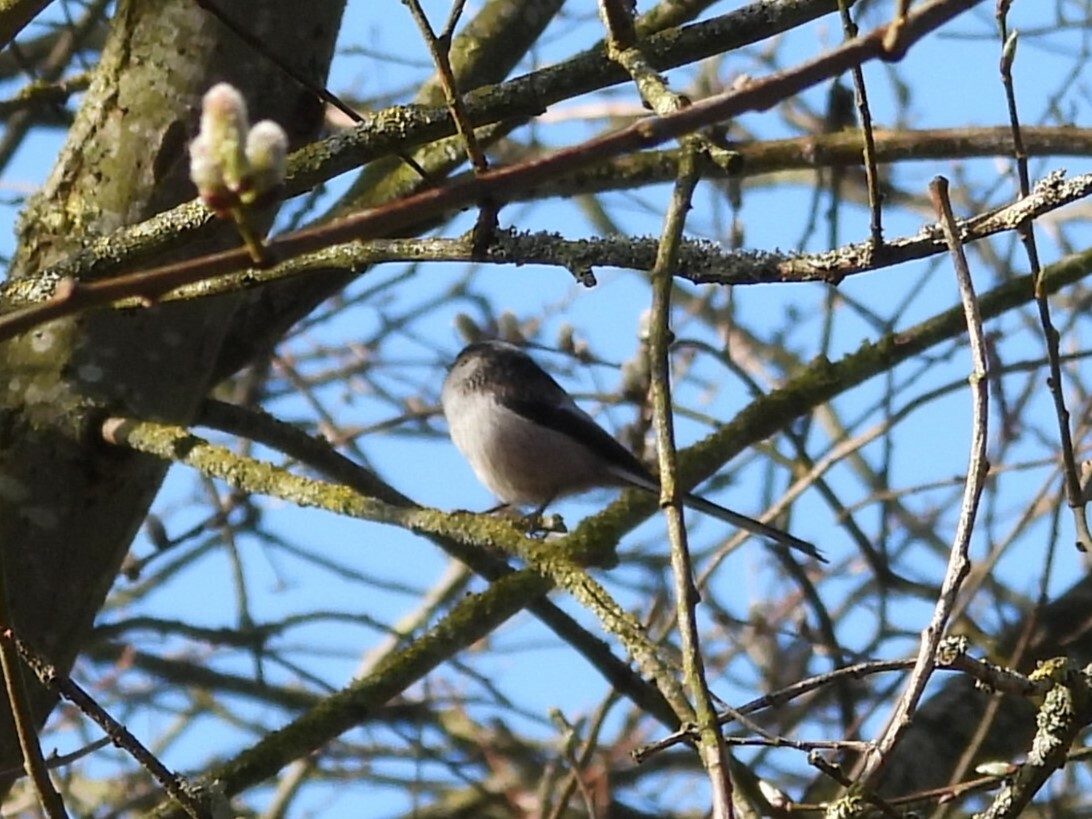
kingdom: Animalia
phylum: Chordata
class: Aves
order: Passeriformes
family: Aegithalidae
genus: Aegithalos
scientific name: Aegithalos caudatus
